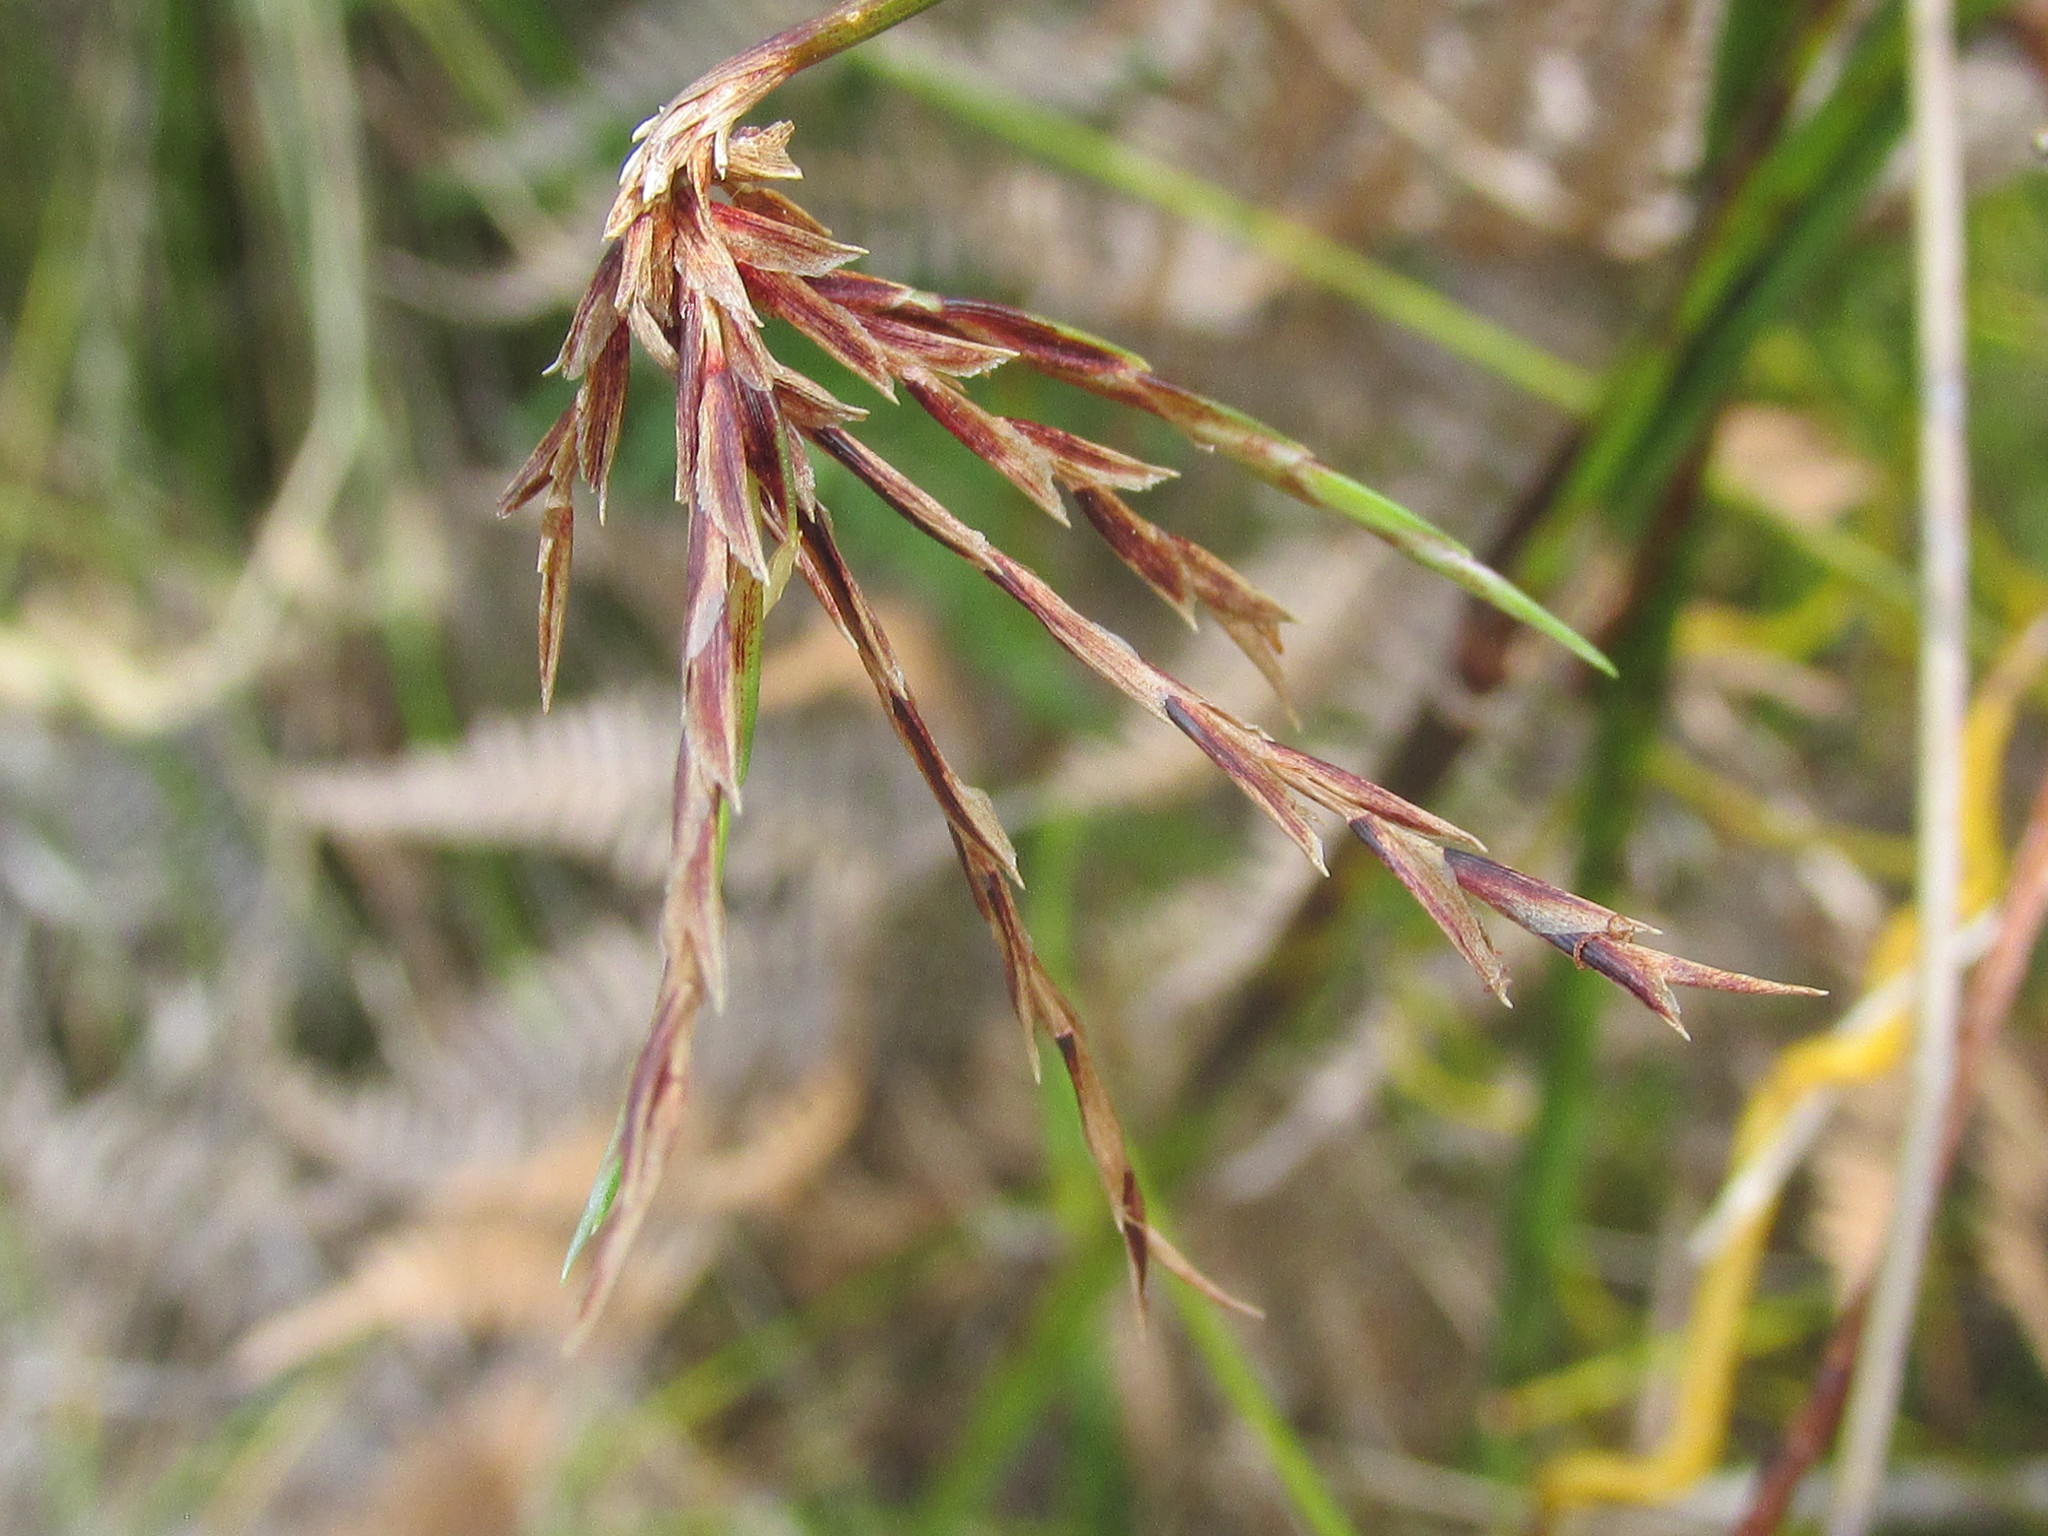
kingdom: Plantae
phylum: Tracheophyta
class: Liliopsida
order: Poales
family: Cyperaceae
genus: Ficinia
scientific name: Ficinia distans
